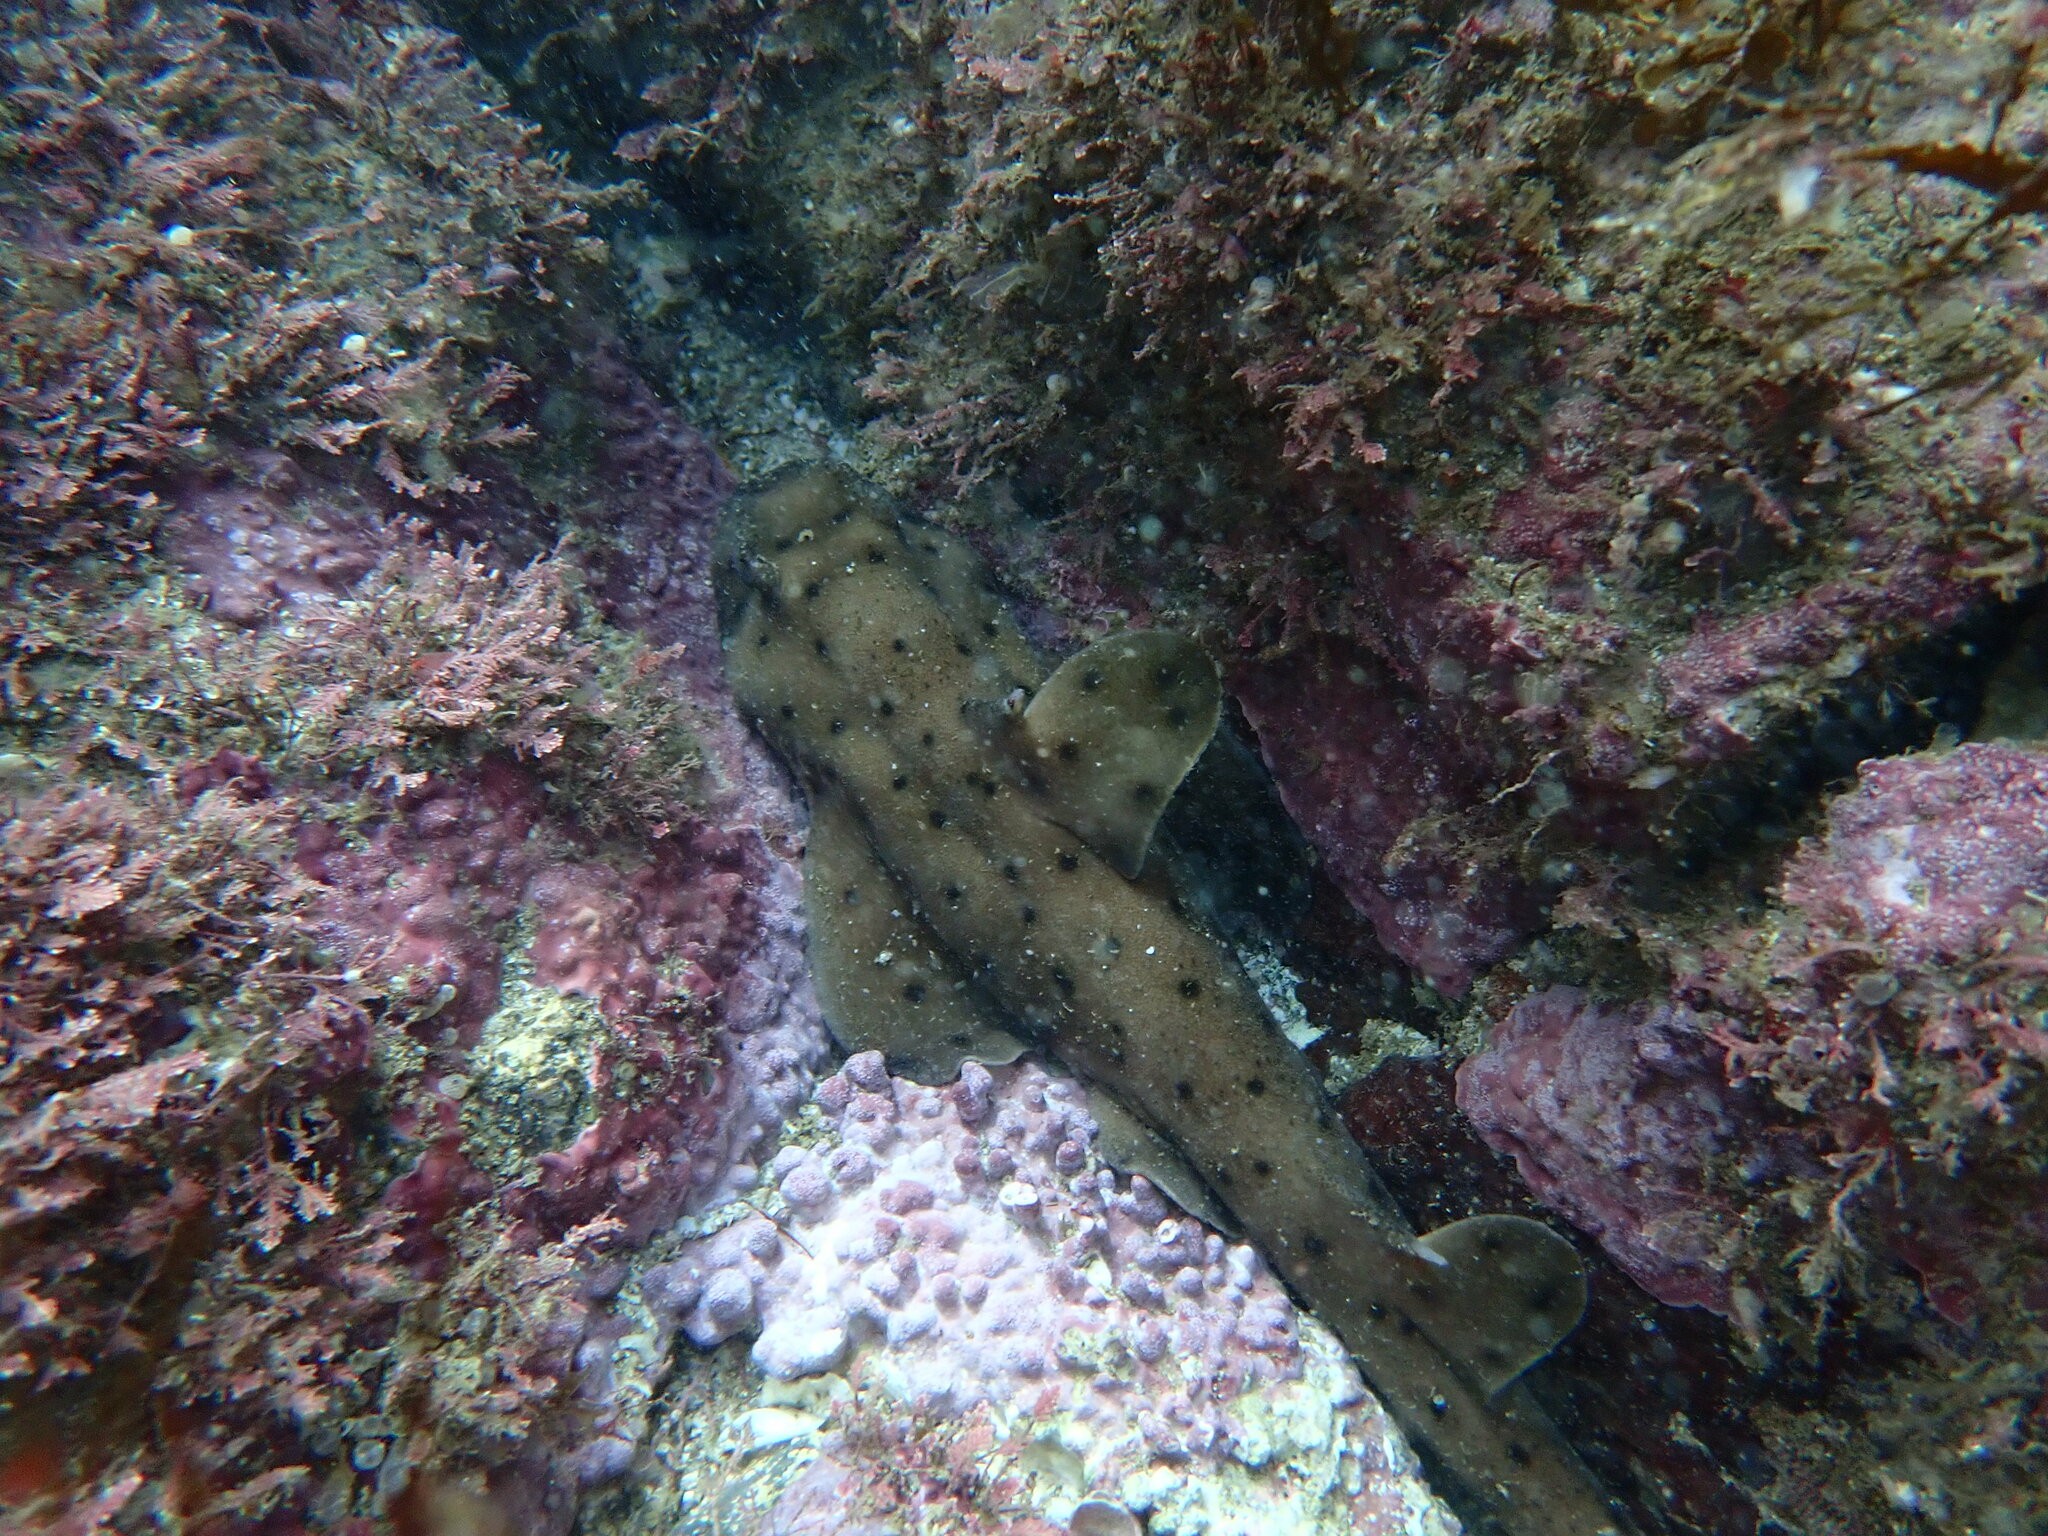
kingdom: Animalia
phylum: Chordata
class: Elasmobranchii
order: Heterodontiformes
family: Heterodontidae
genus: Heterodontus
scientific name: Heterodontus francisci
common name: Horn shark
